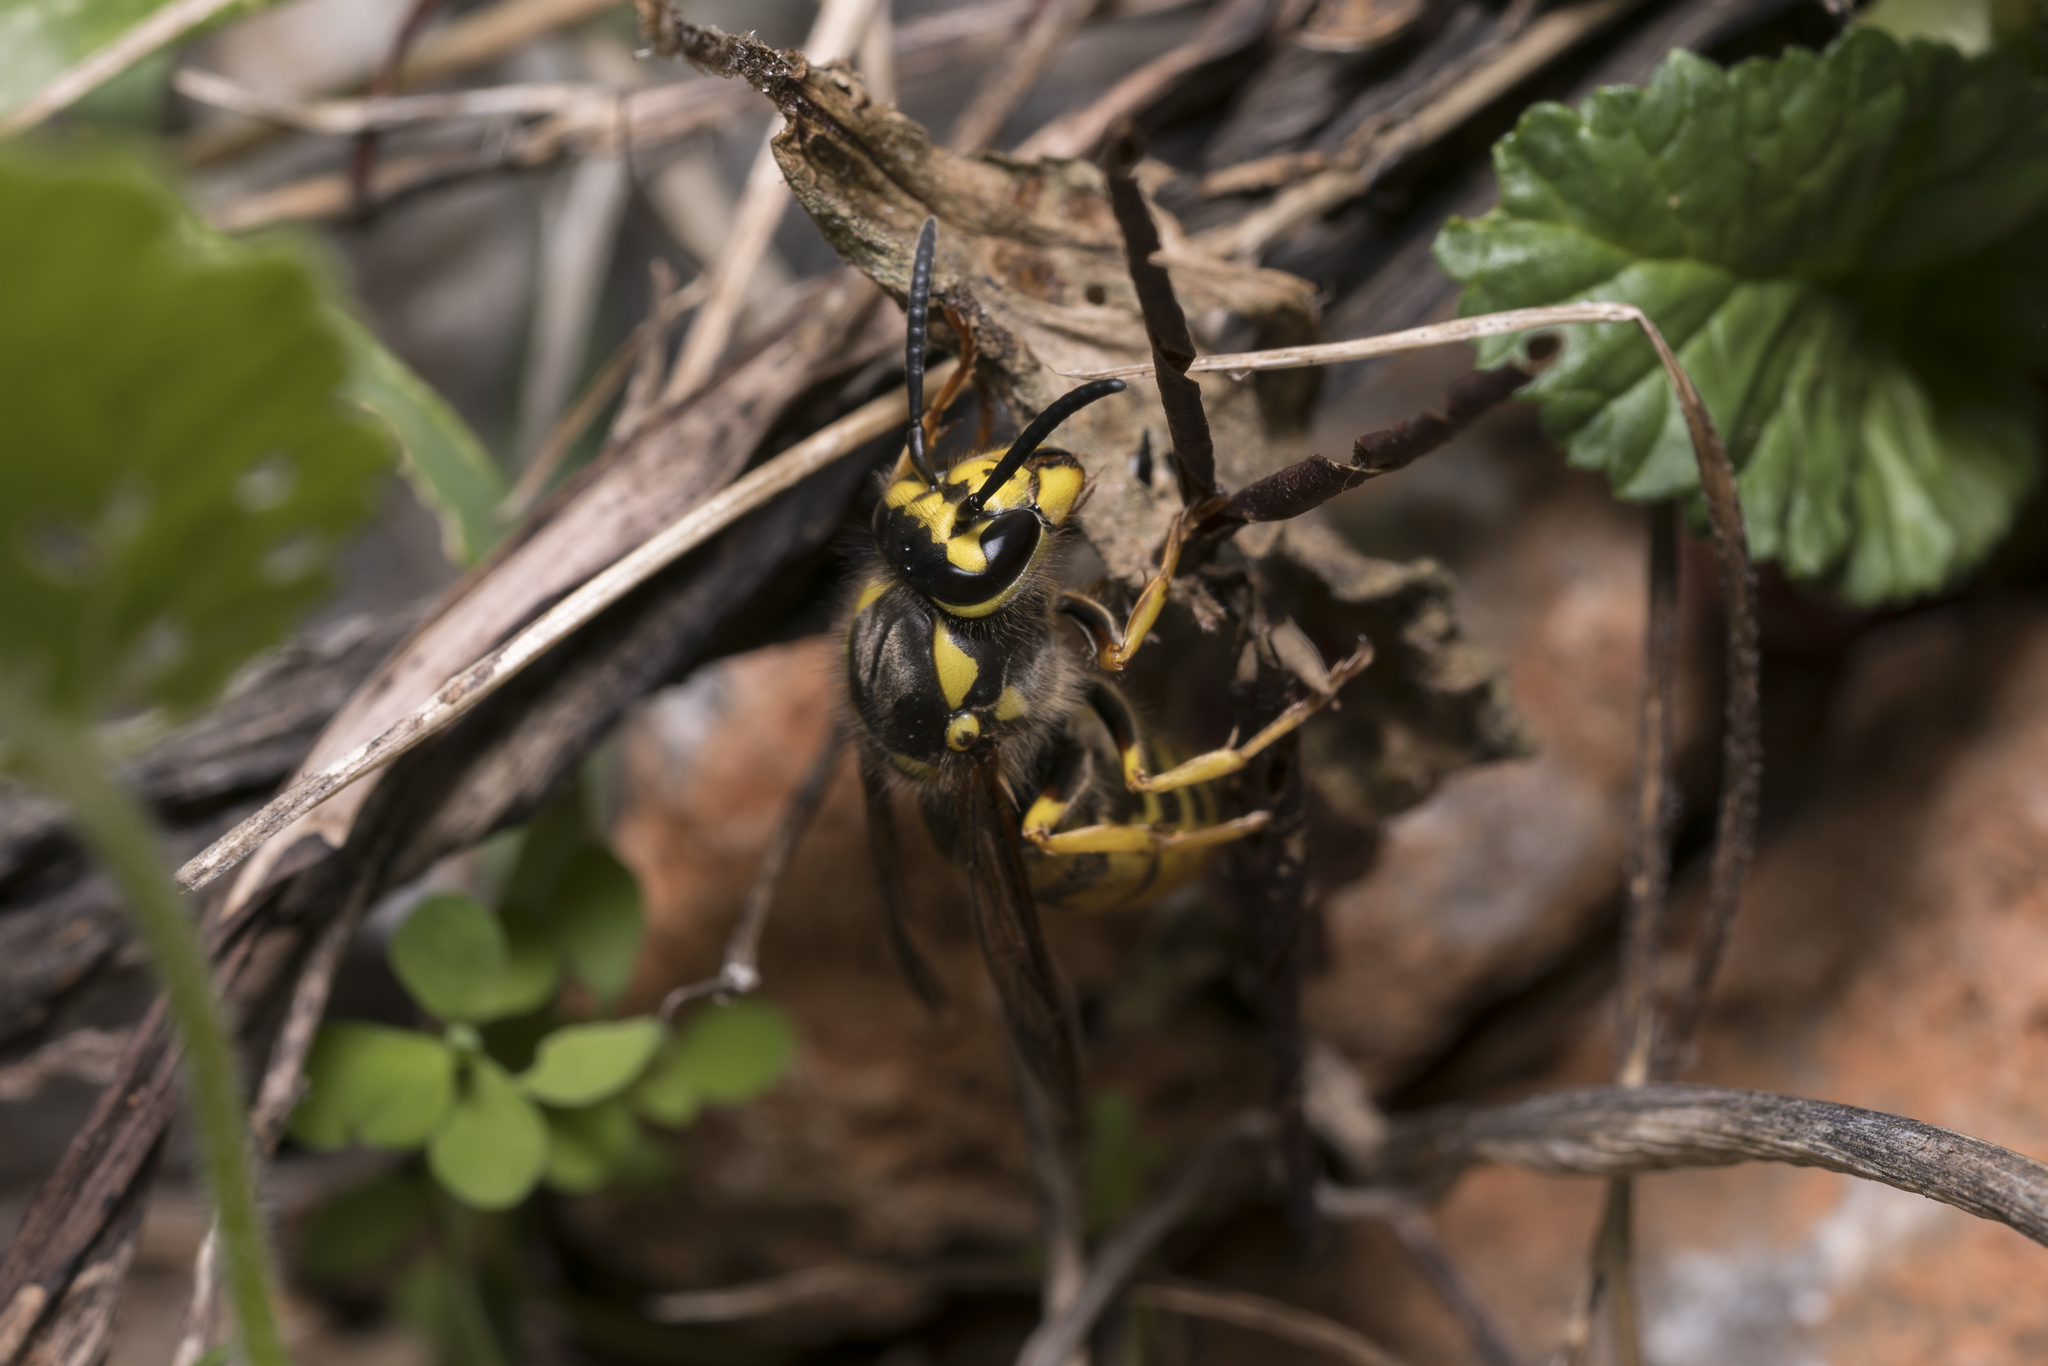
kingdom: Animalia
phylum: Arthropoda
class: Insecta
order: Hymenoptera
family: Vespidae
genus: Vespula
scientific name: Vespula germanica
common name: German wasp
